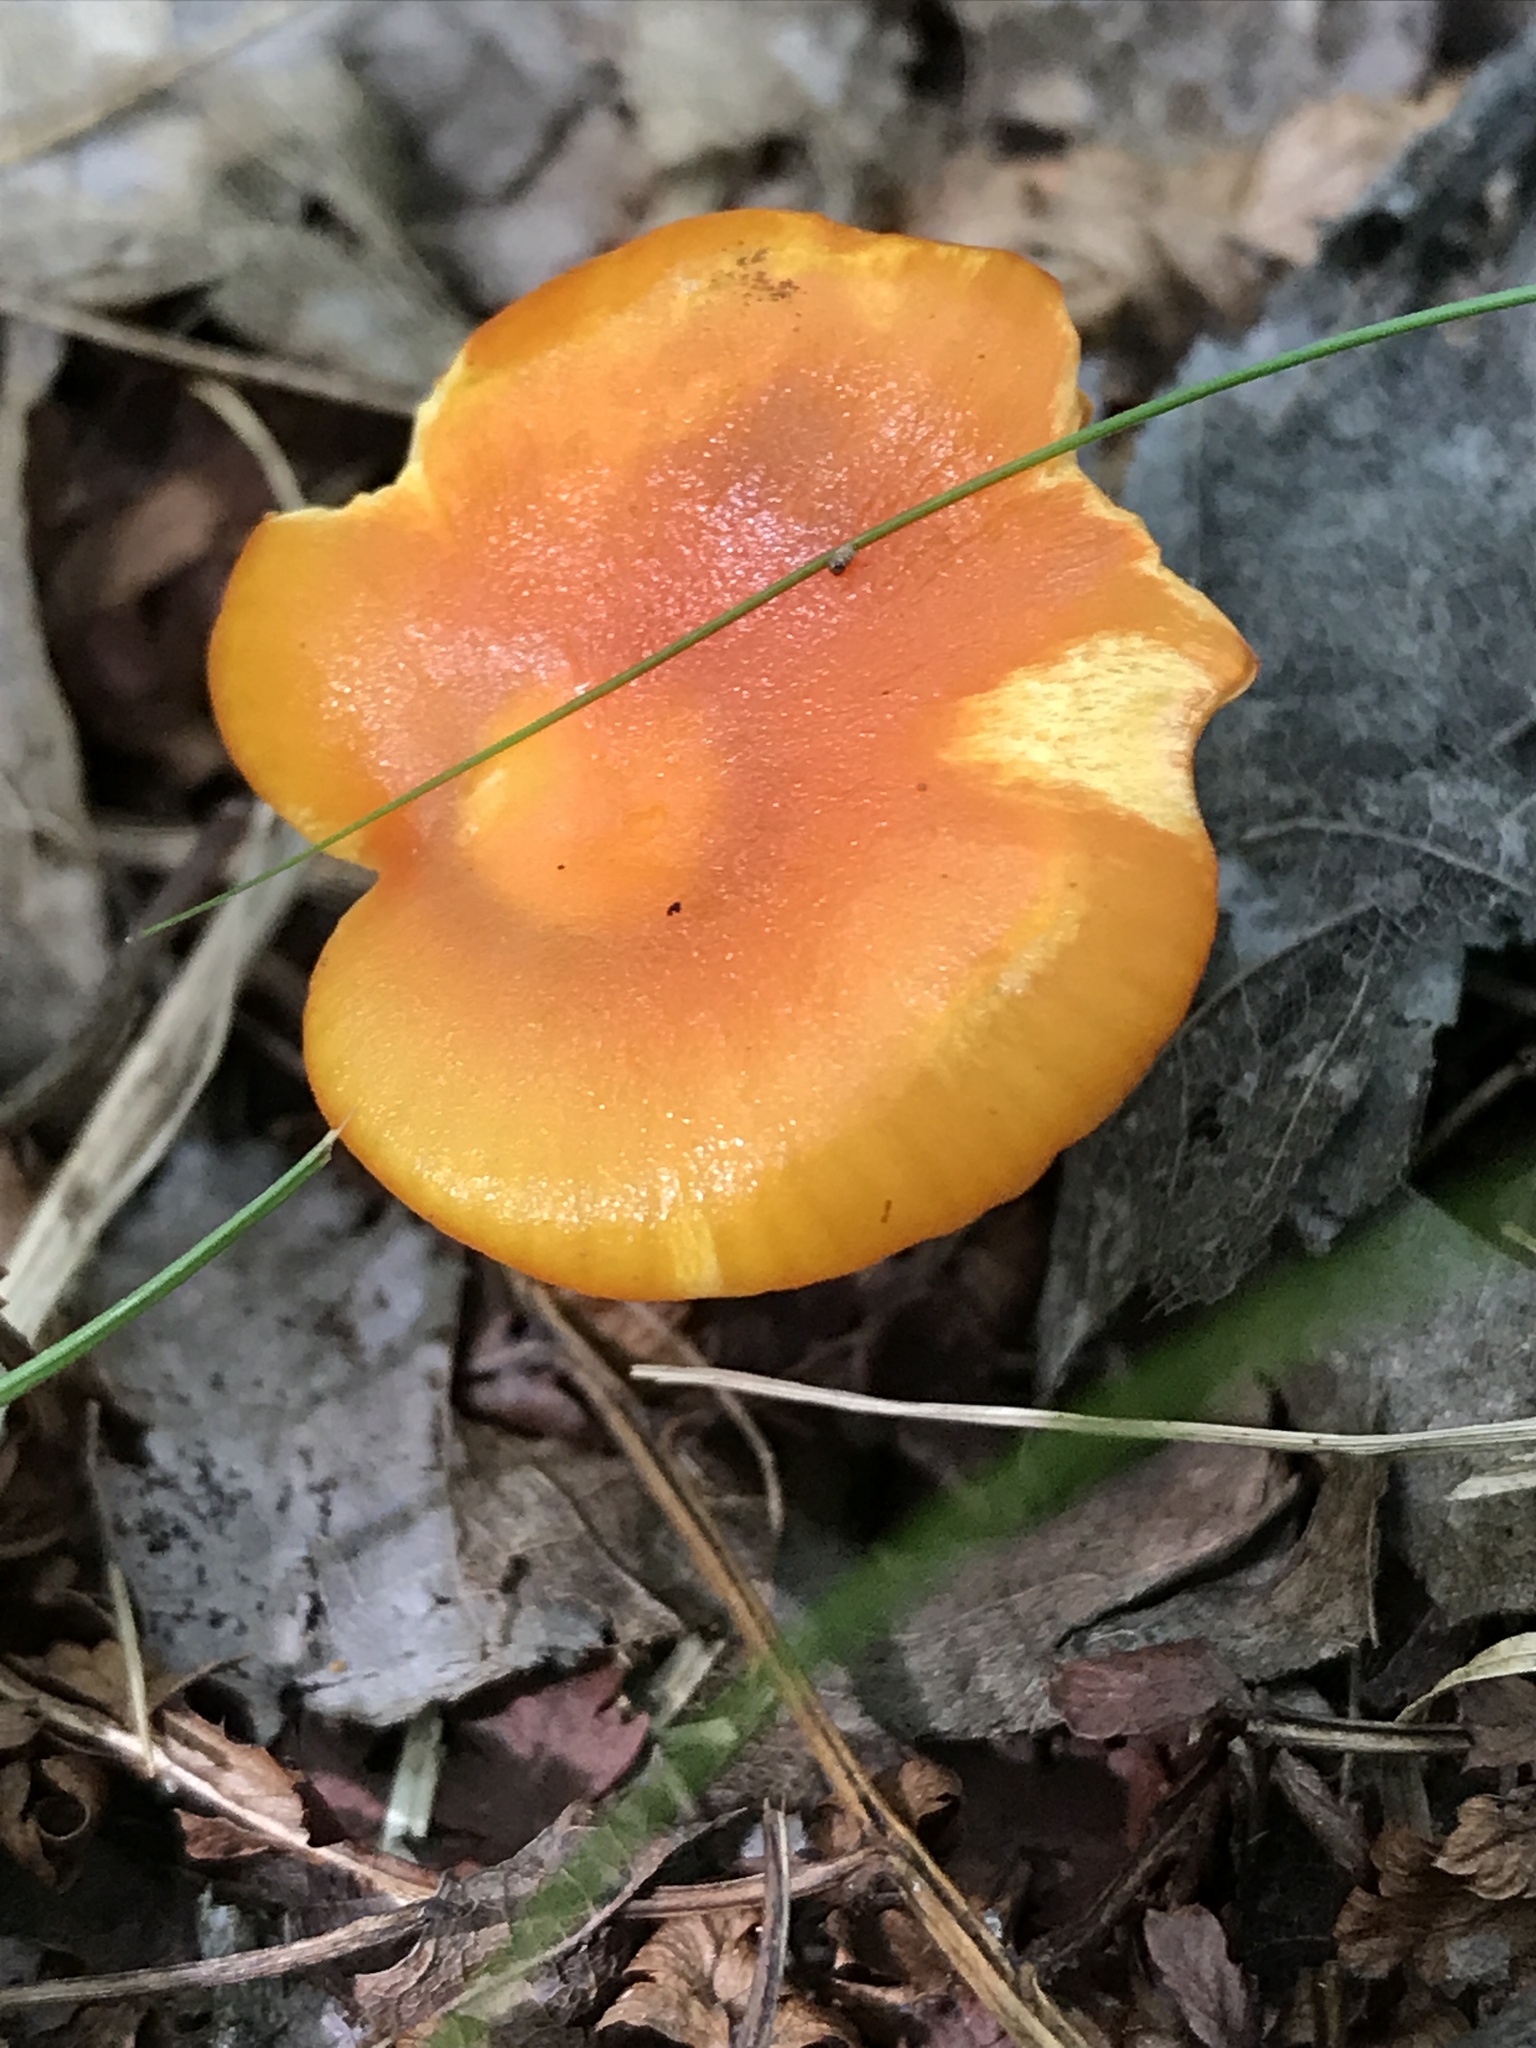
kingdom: Fungi
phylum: Basidiomycota
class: Agaricomycetes
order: Agaricales
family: Hygrophoraceae
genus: Hygrocybe
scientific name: Hygrocybe flavescens
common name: Golden waxy cap
